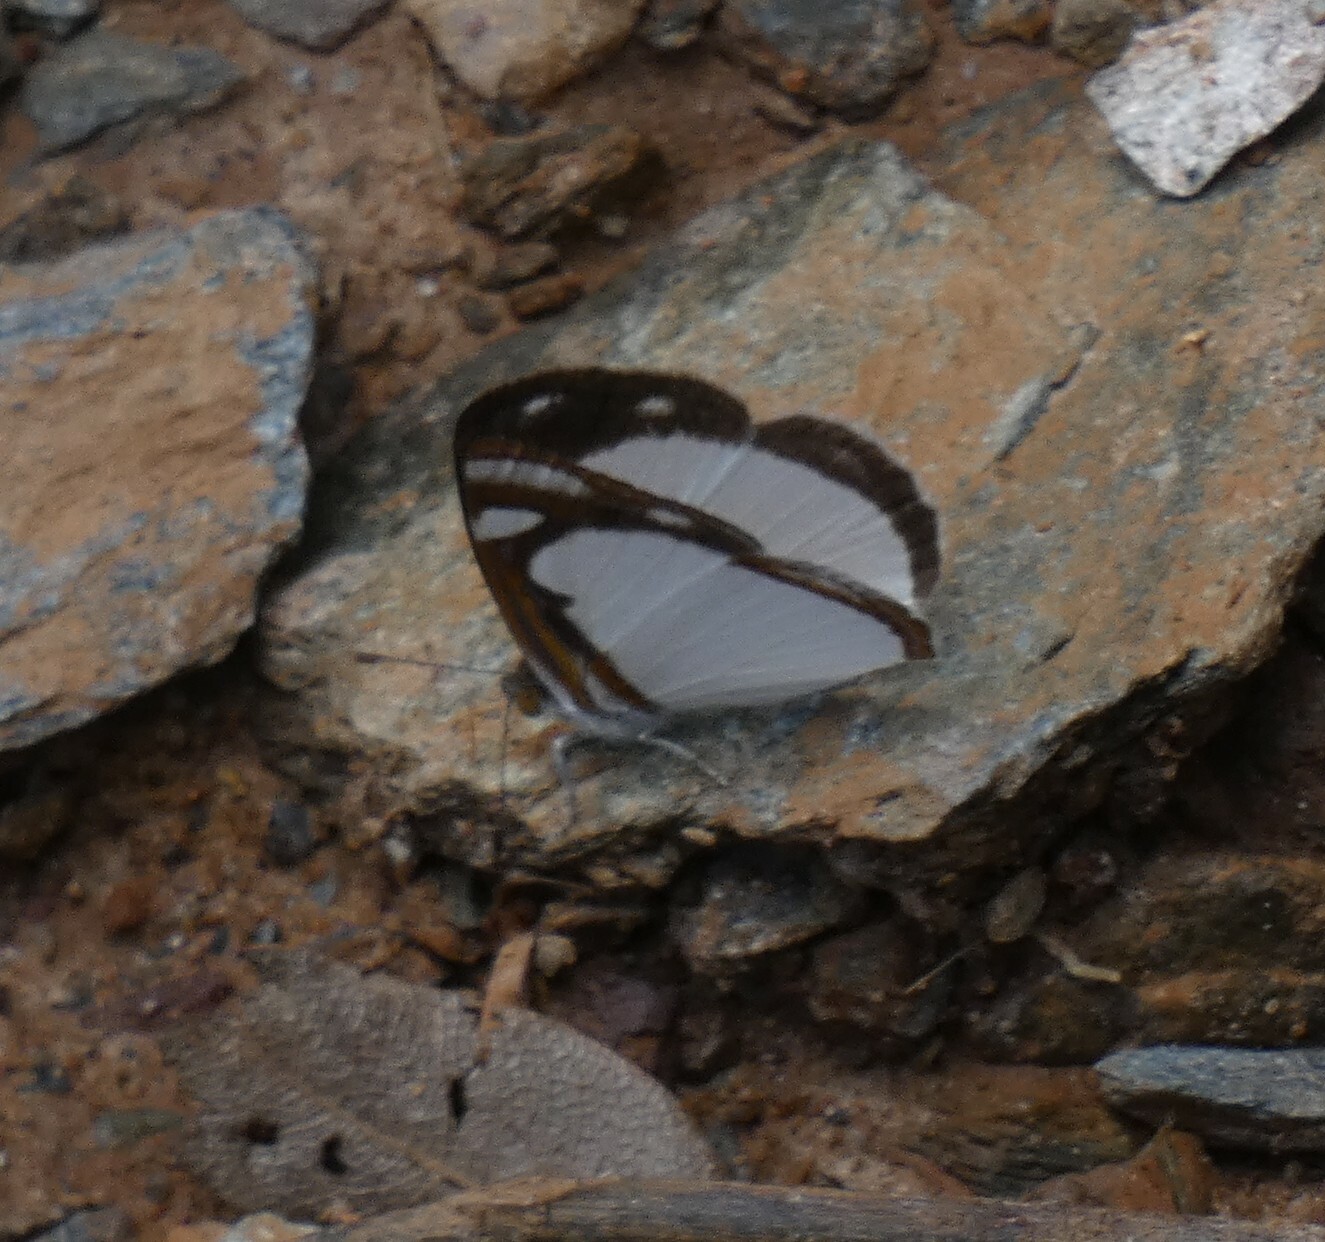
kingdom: Animalia
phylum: Arthropoda
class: Insecta
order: Lepidoptera
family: Nymphalidae
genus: Dynamine
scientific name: Dynamine agacles
